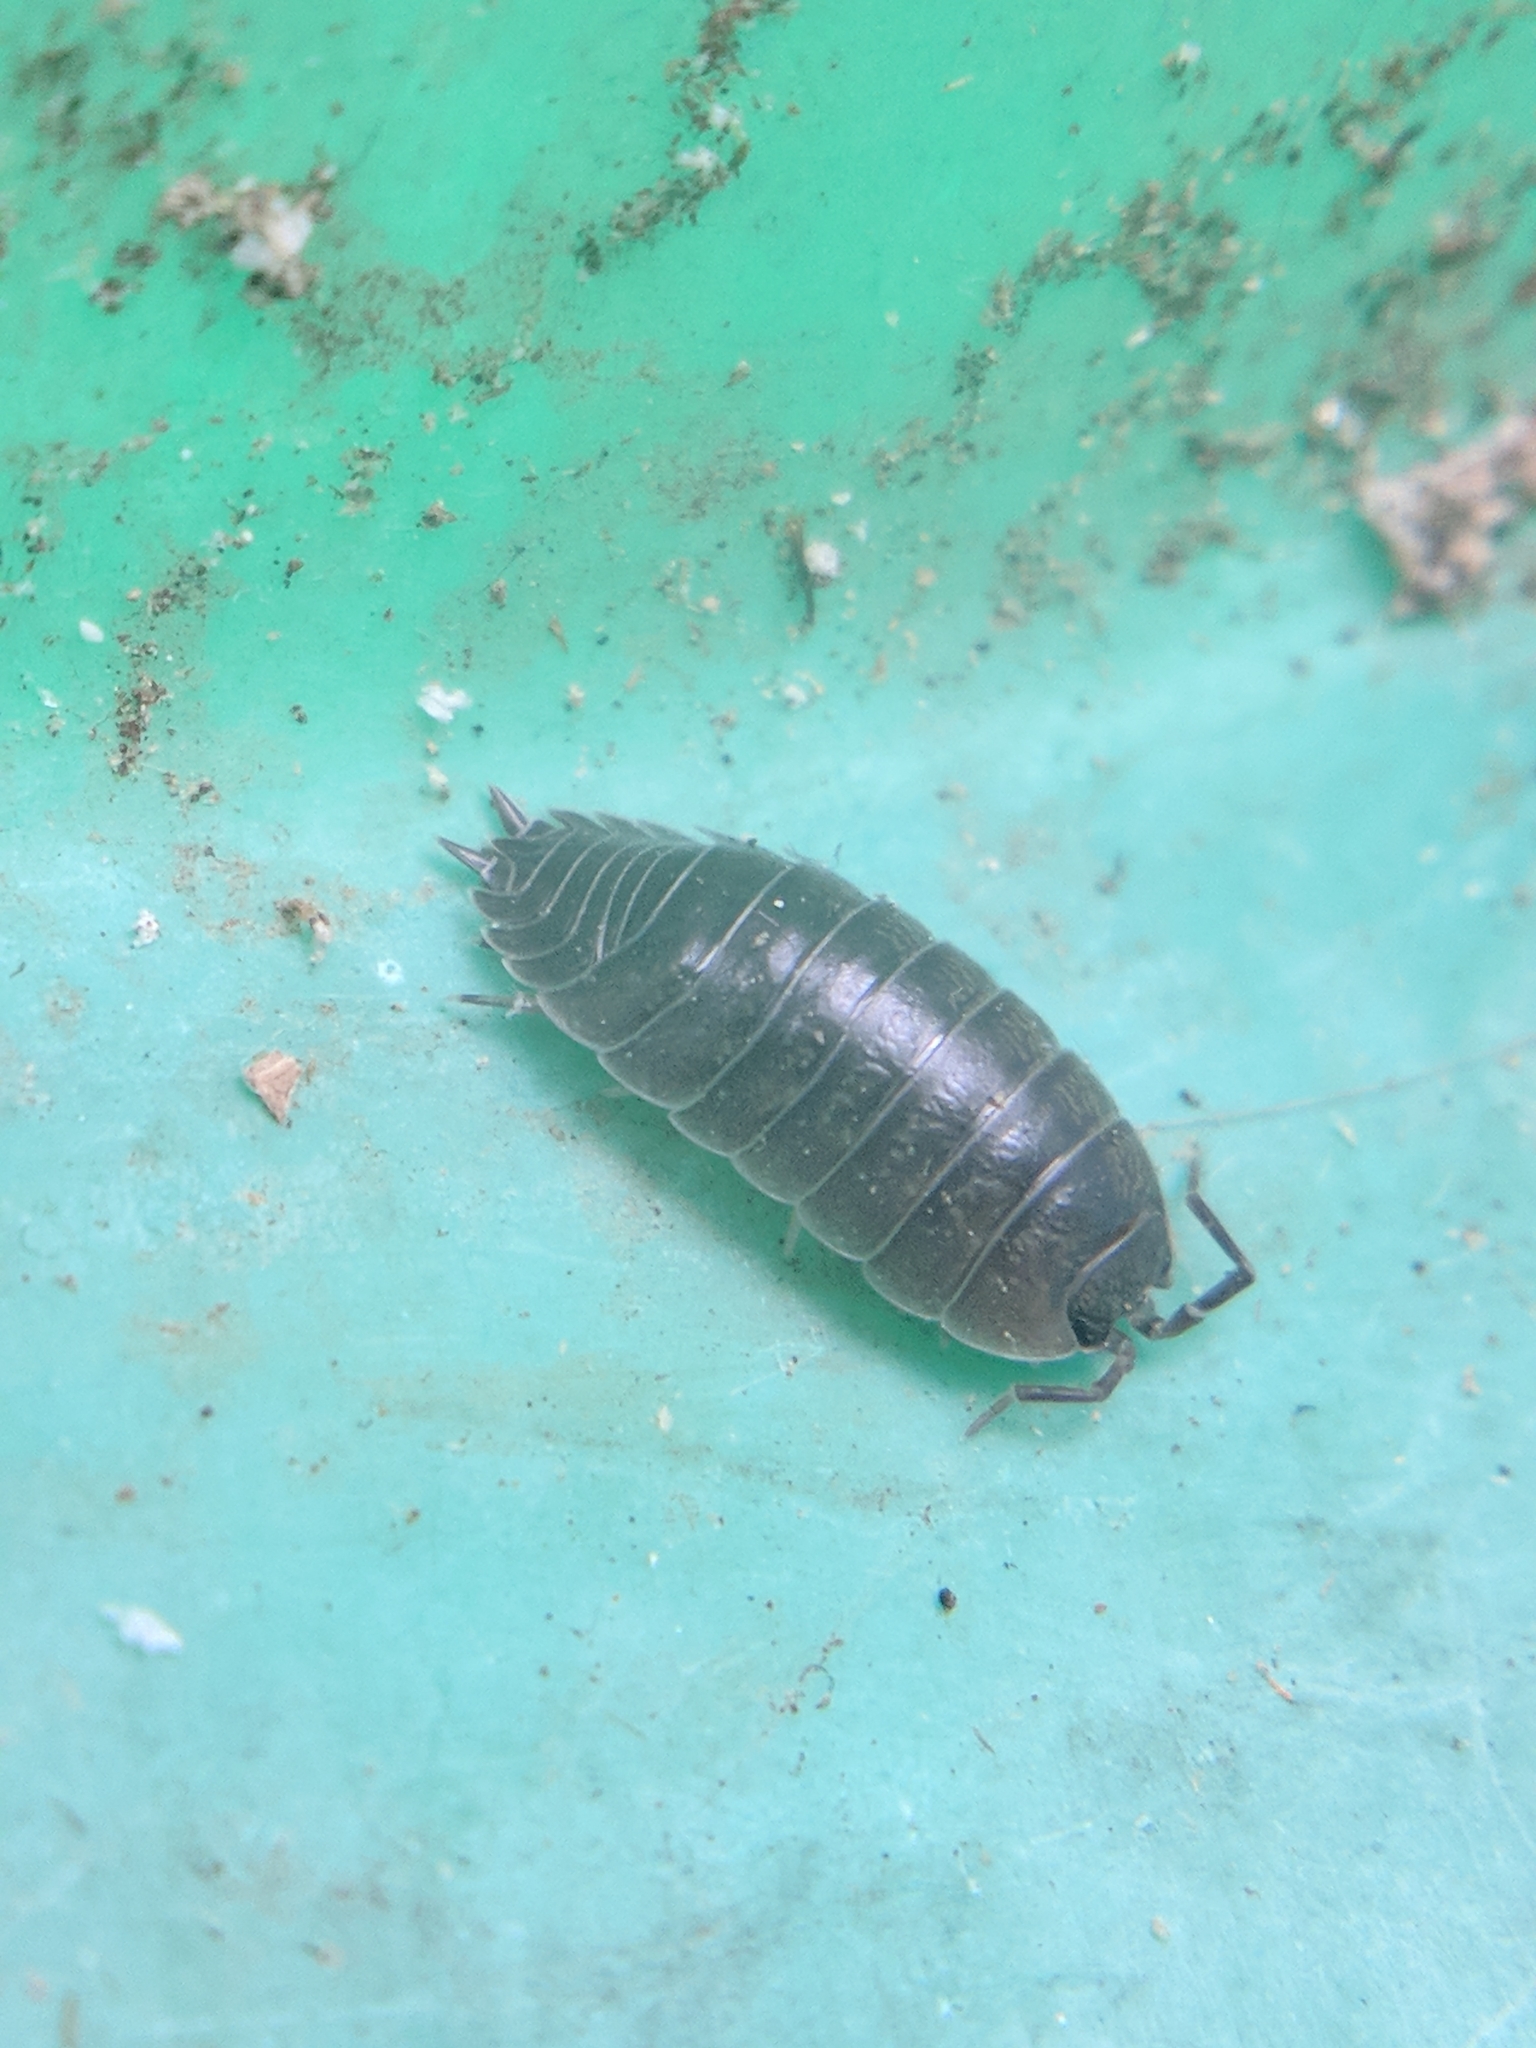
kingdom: Animalia
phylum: Arthropoda
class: Malacostraca
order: Isopoda
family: Porcellionidae
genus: Porcellio
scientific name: Porcellio laevis
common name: Swift woodlouse
